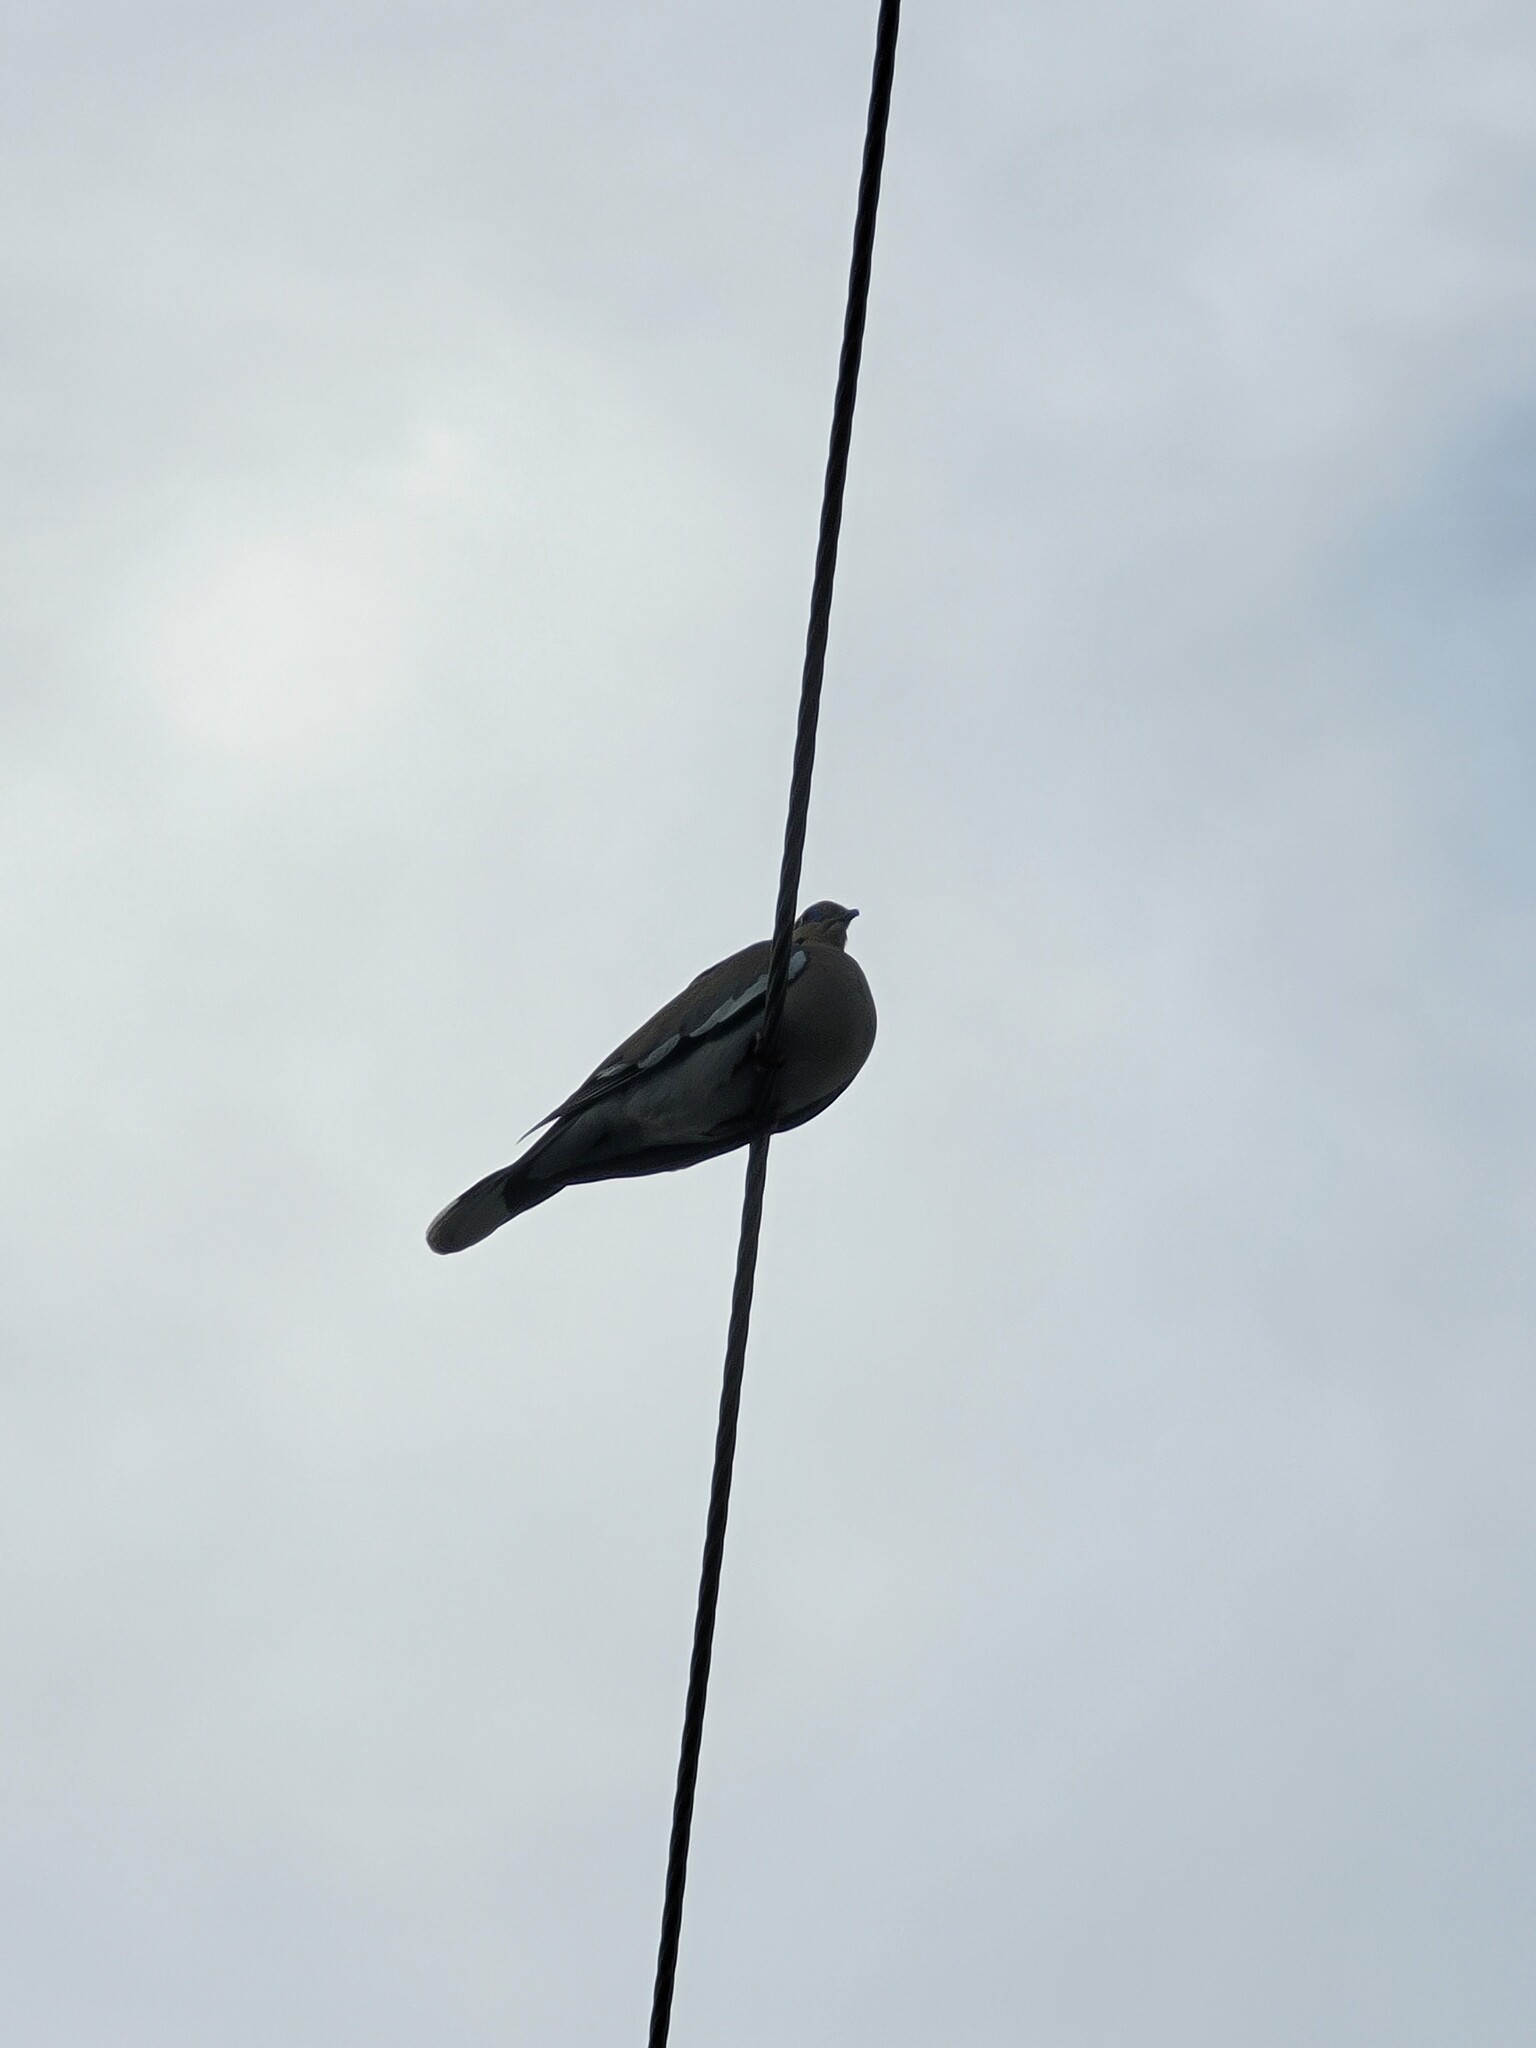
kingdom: Animalia
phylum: Chordata
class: Aves
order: Columbiformes
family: Columbidae
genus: Zenaida
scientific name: Zenaida asiatica
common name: White-winged dove
